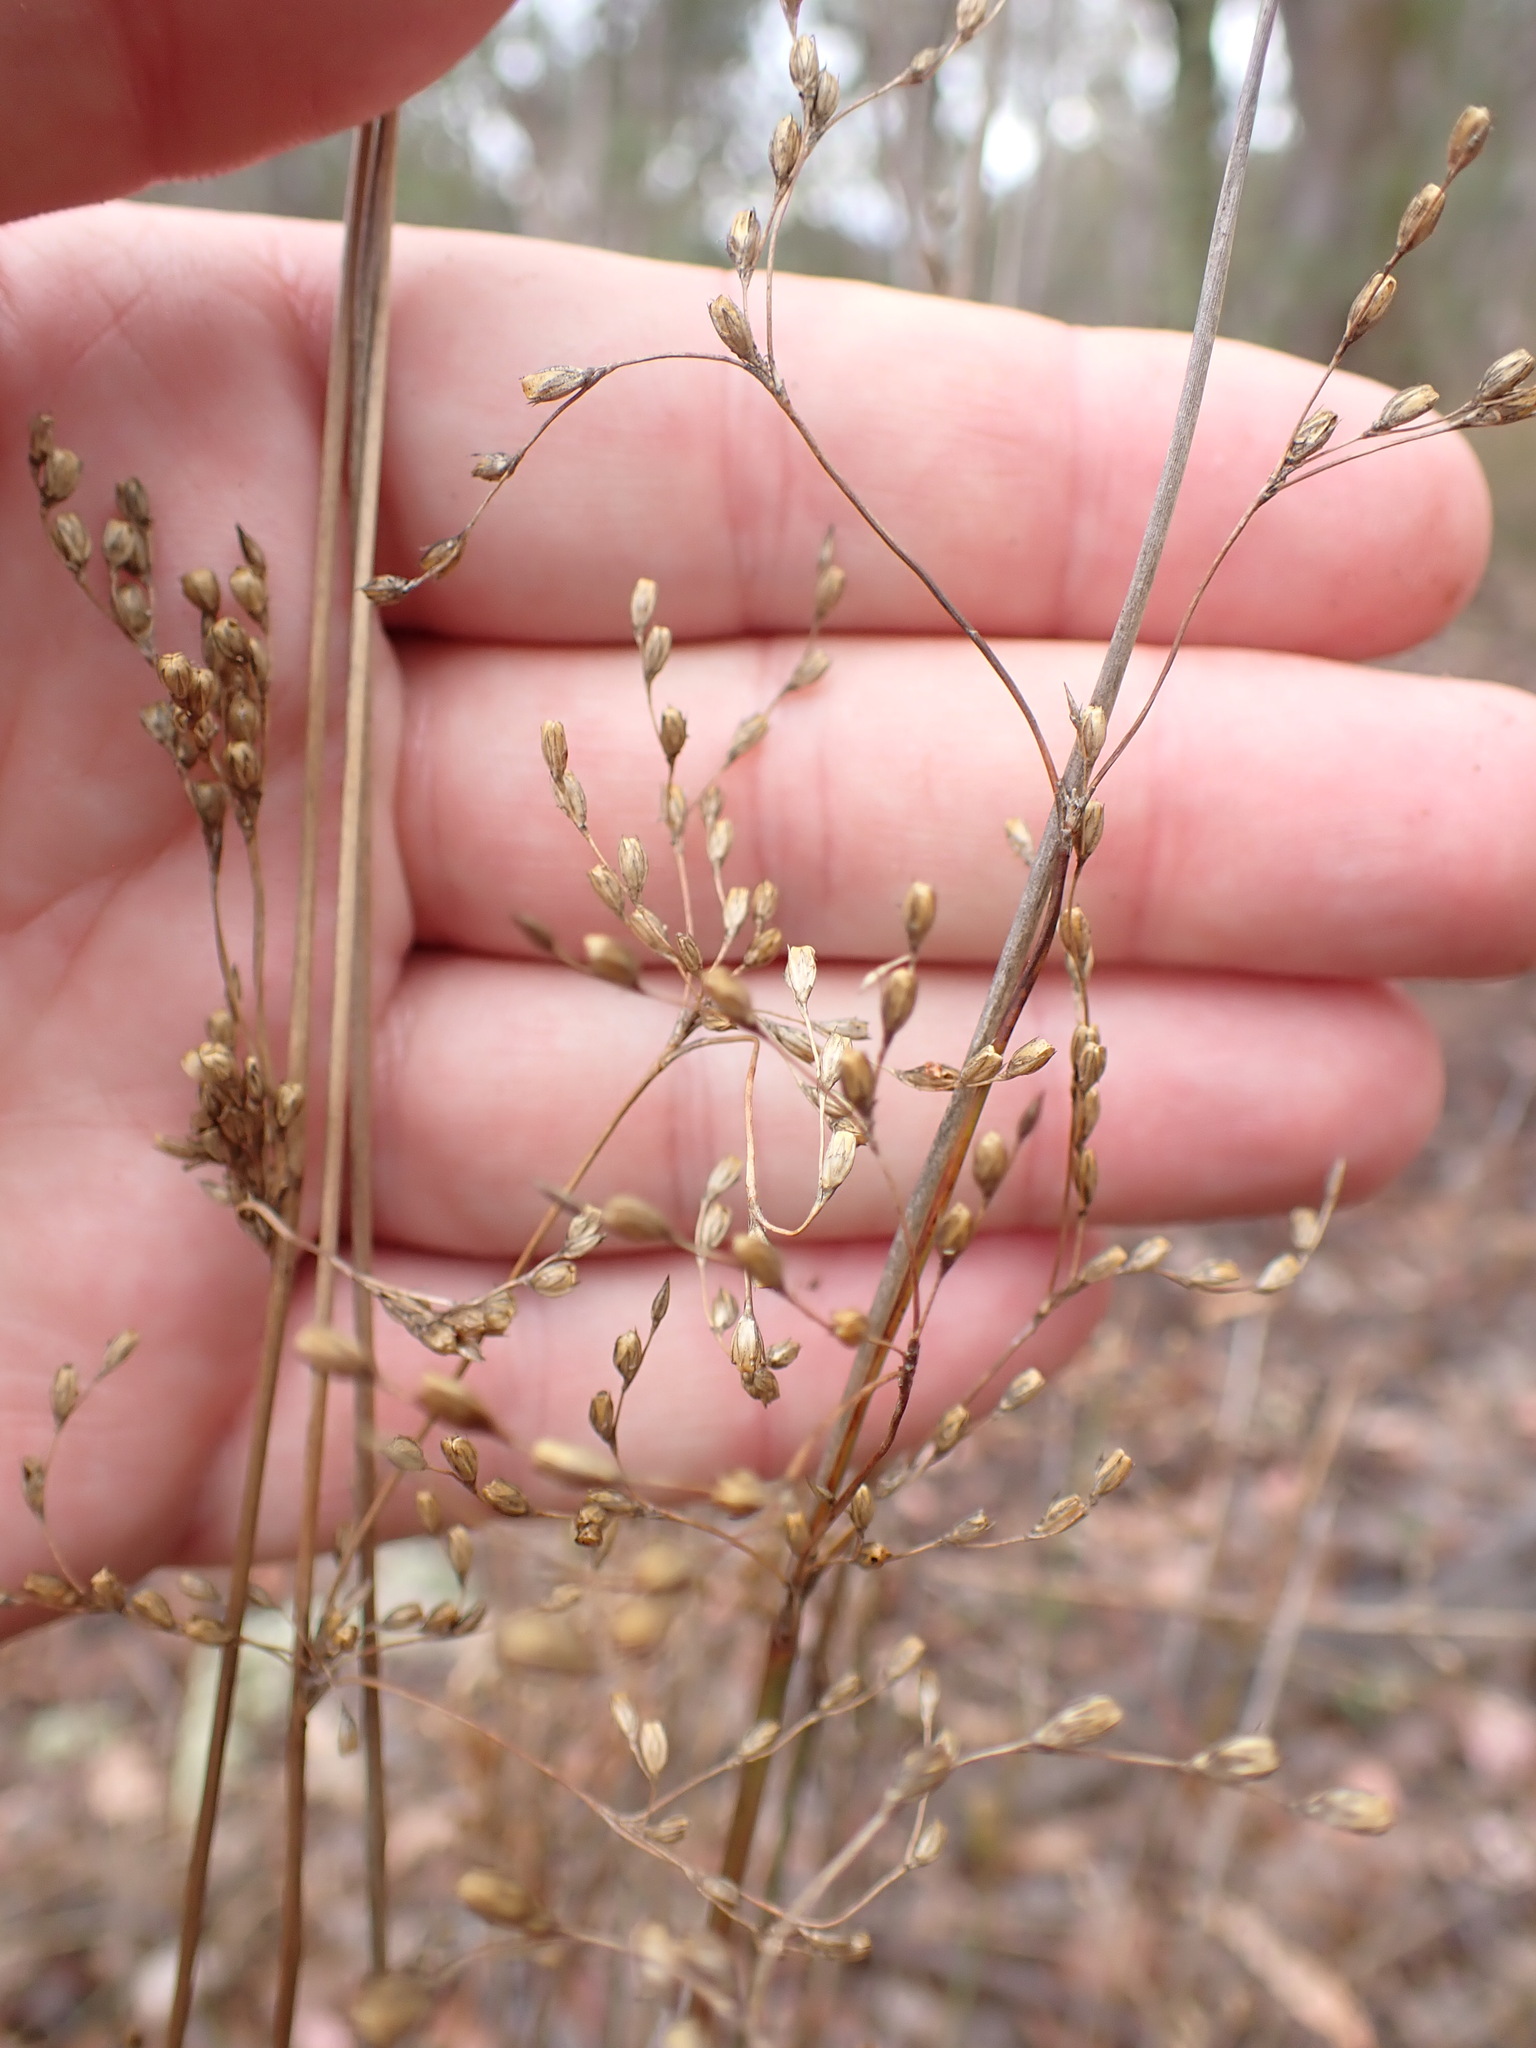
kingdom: Plantae
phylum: Tracheophyta
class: Liliopsida
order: Poales
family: Juncaceae
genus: Juncus
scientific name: Juncus remotiflorus
